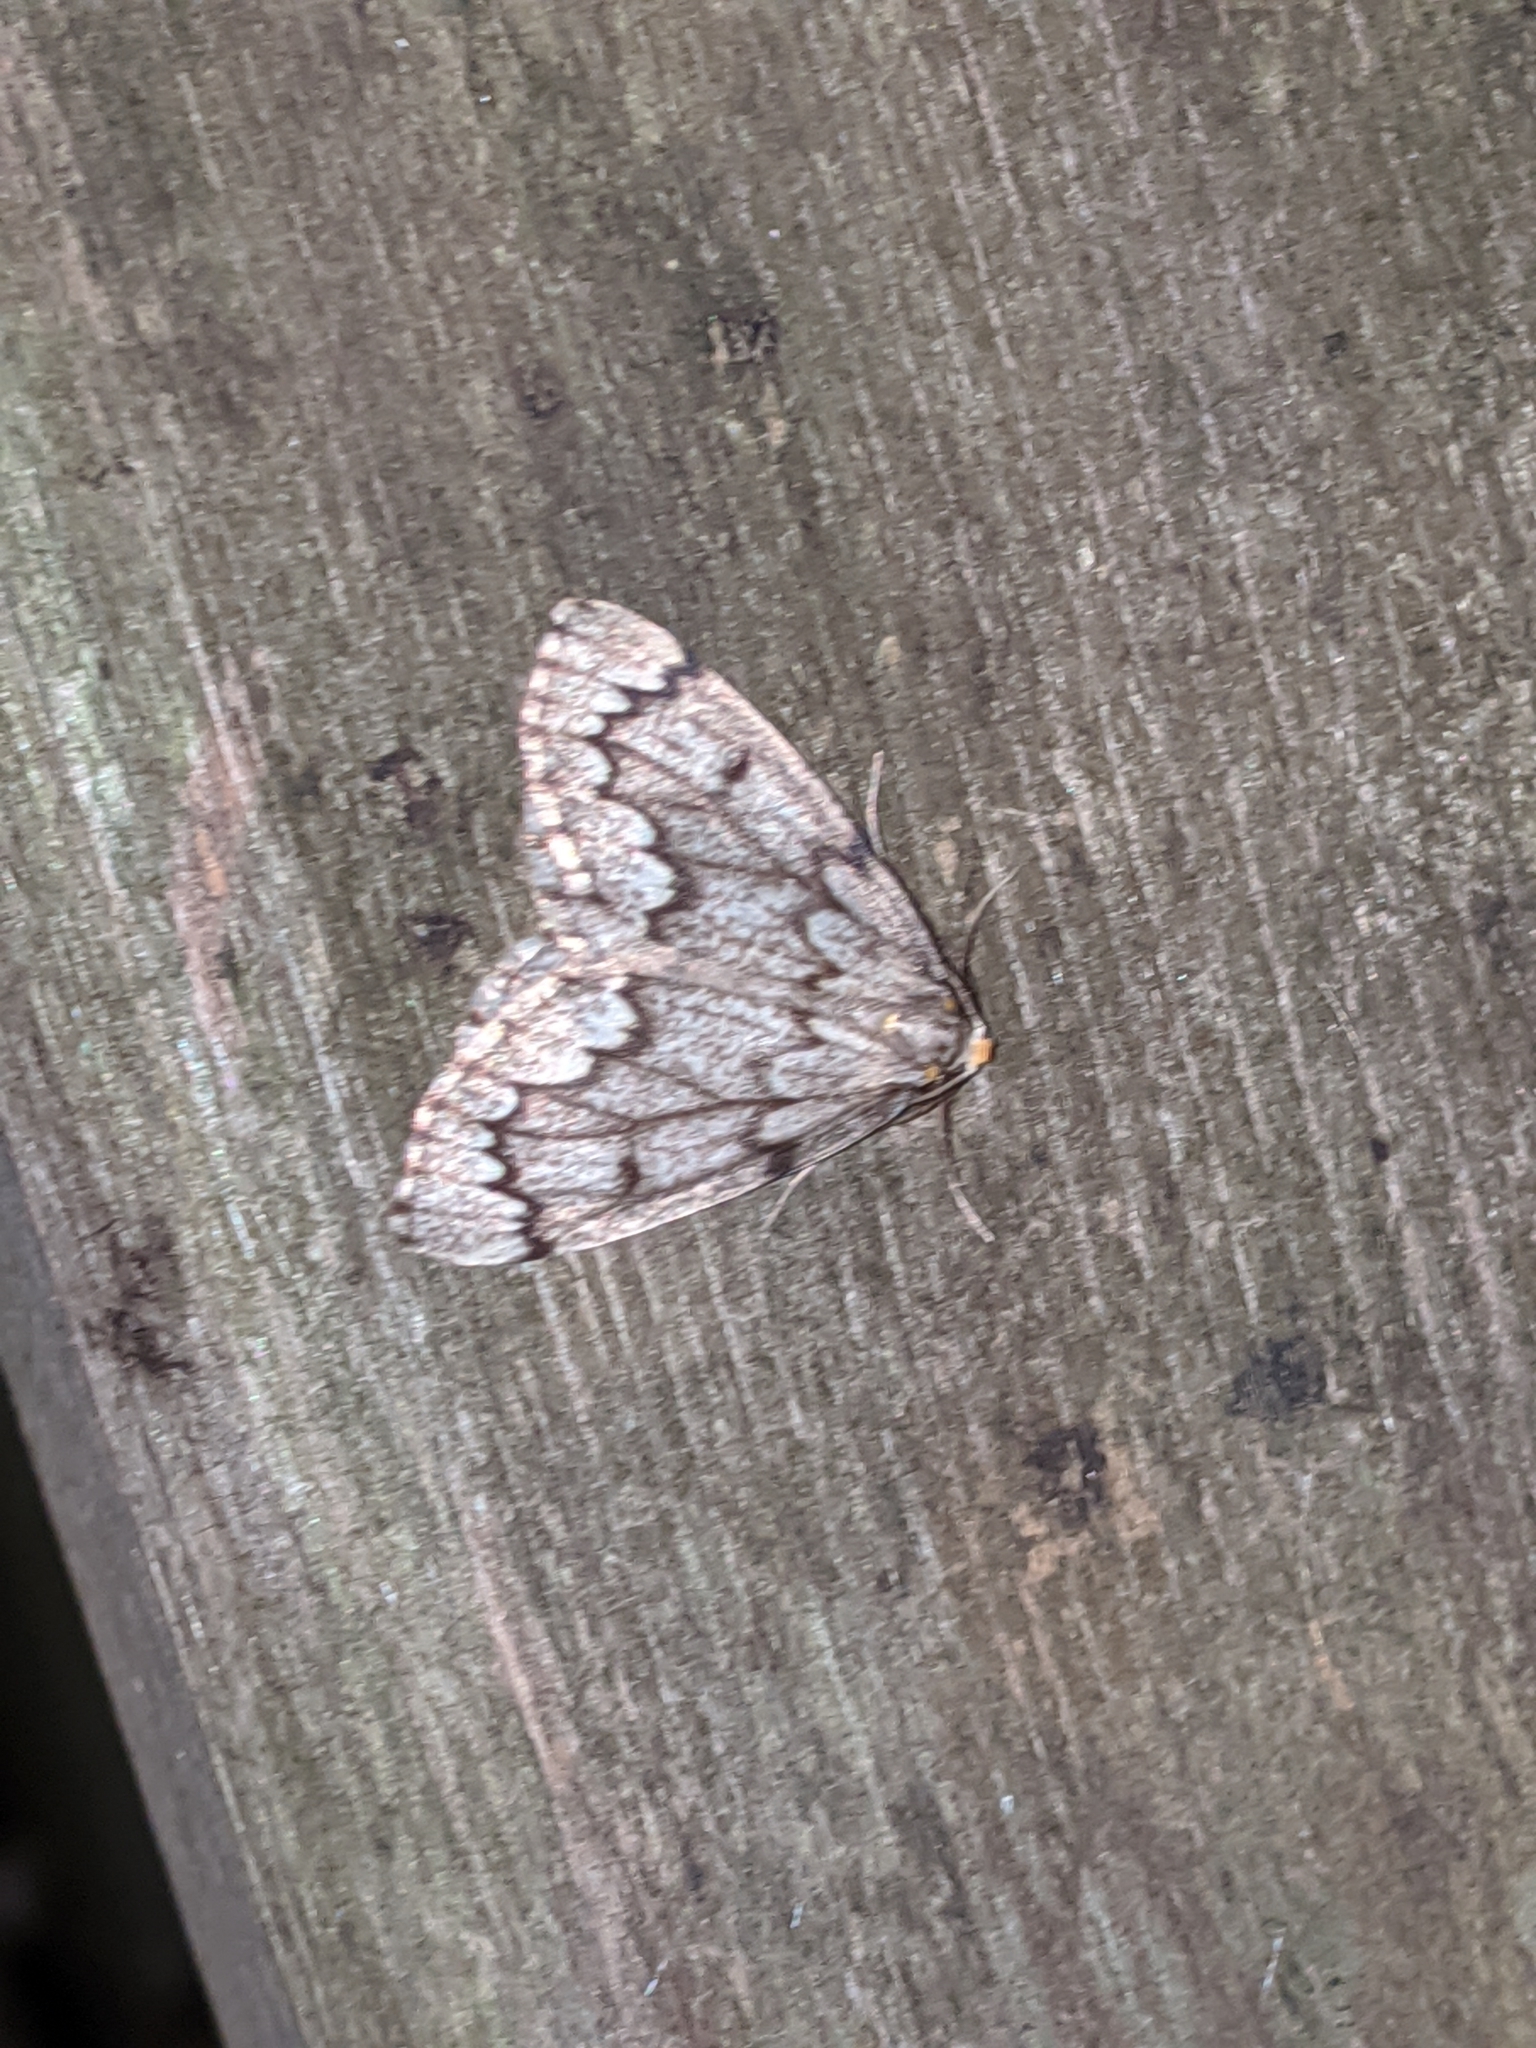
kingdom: Animalia
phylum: Arthropoda
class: Insecta
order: Lepidoptera
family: Geometridae
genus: Nepytia
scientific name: Nepytia canosaria
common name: False hemlock looper
